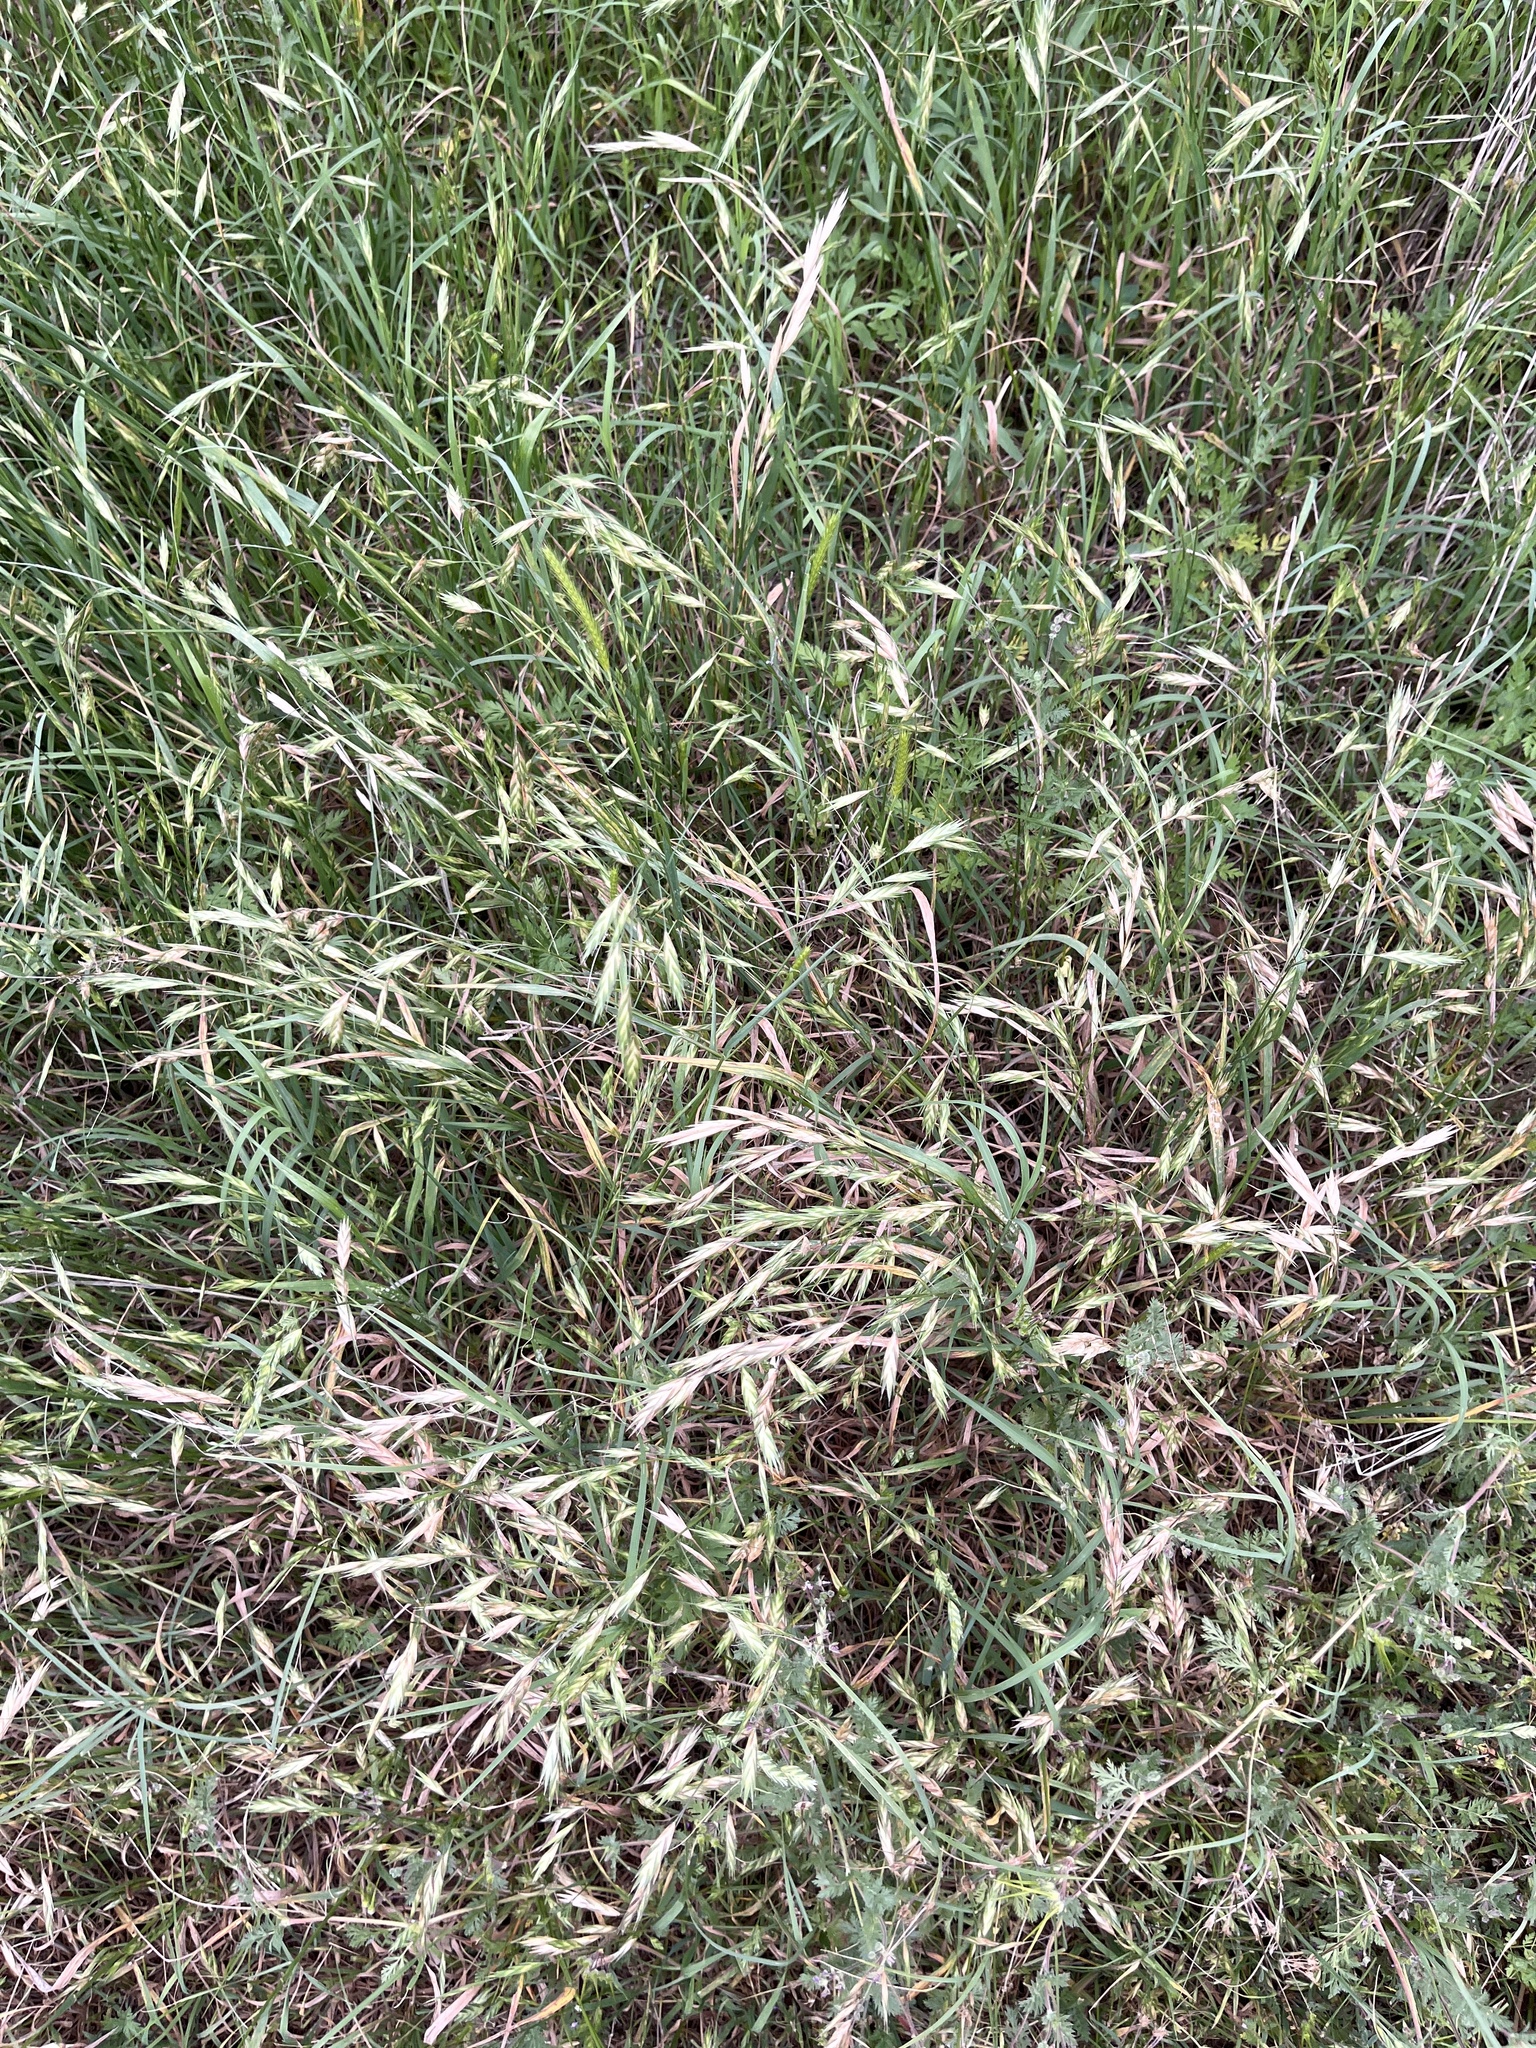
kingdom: Plantae
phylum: Tracheophyta
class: Liliopsida
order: Poales
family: Poaceae
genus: Bromus
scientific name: Bromus catharticus
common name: Rescuegrass
